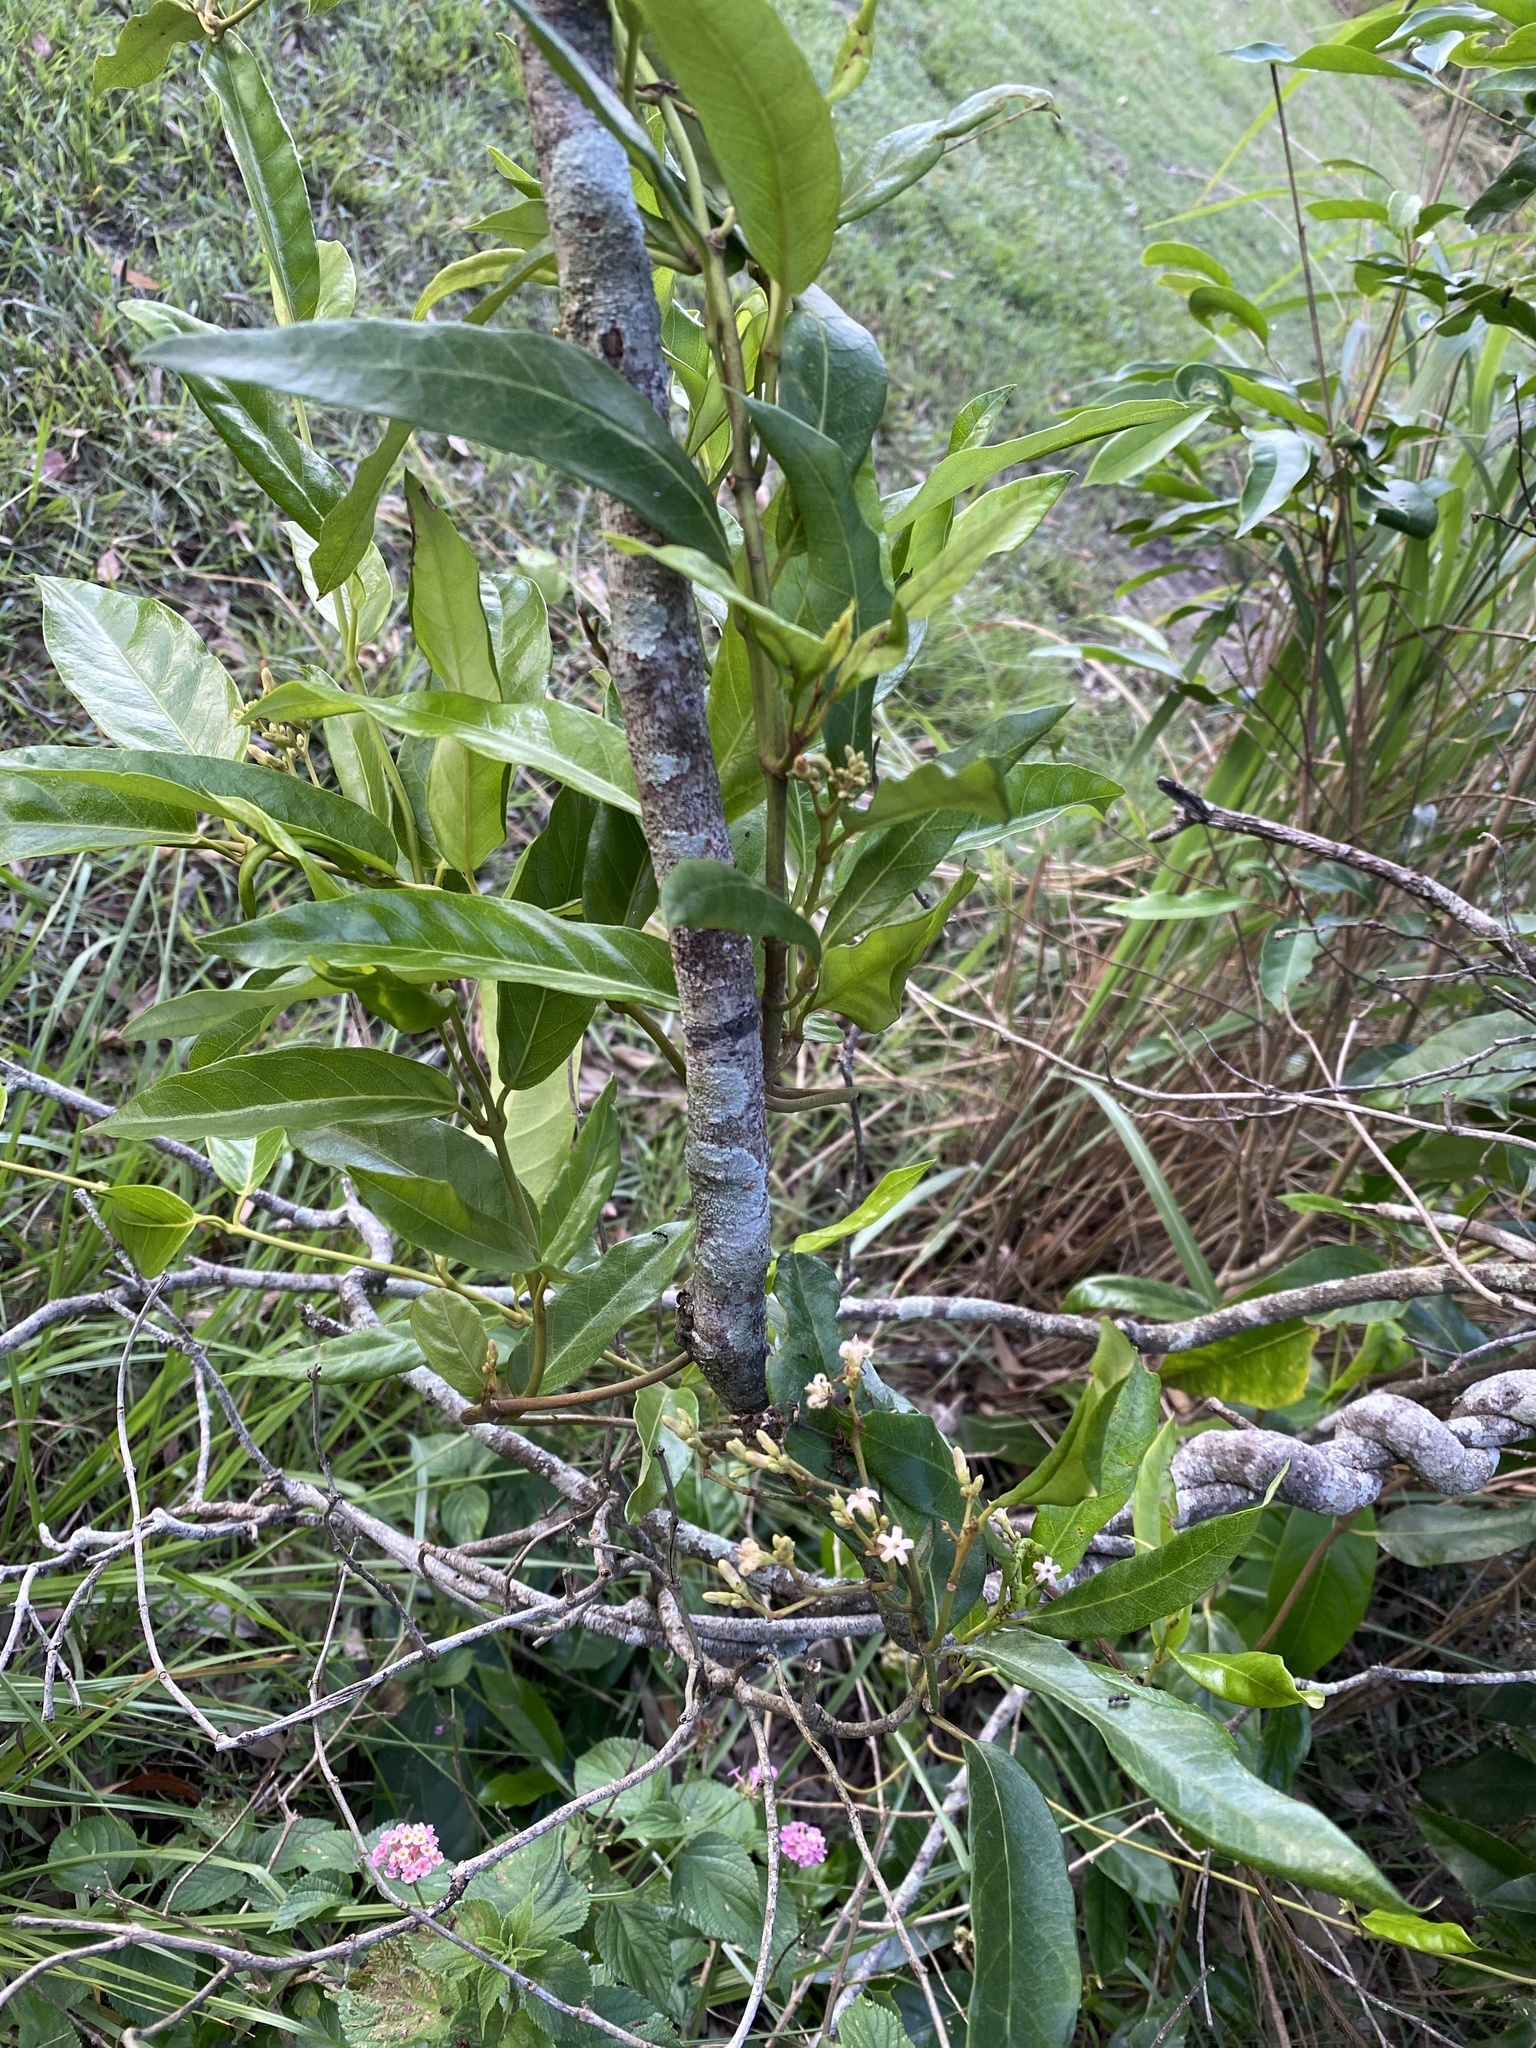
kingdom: Plantae
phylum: Tracheophyta
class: Magnoliopsida
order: Gentianales
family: Apocynaceae
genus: Parsonsia
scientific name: Parsonsia straminea
